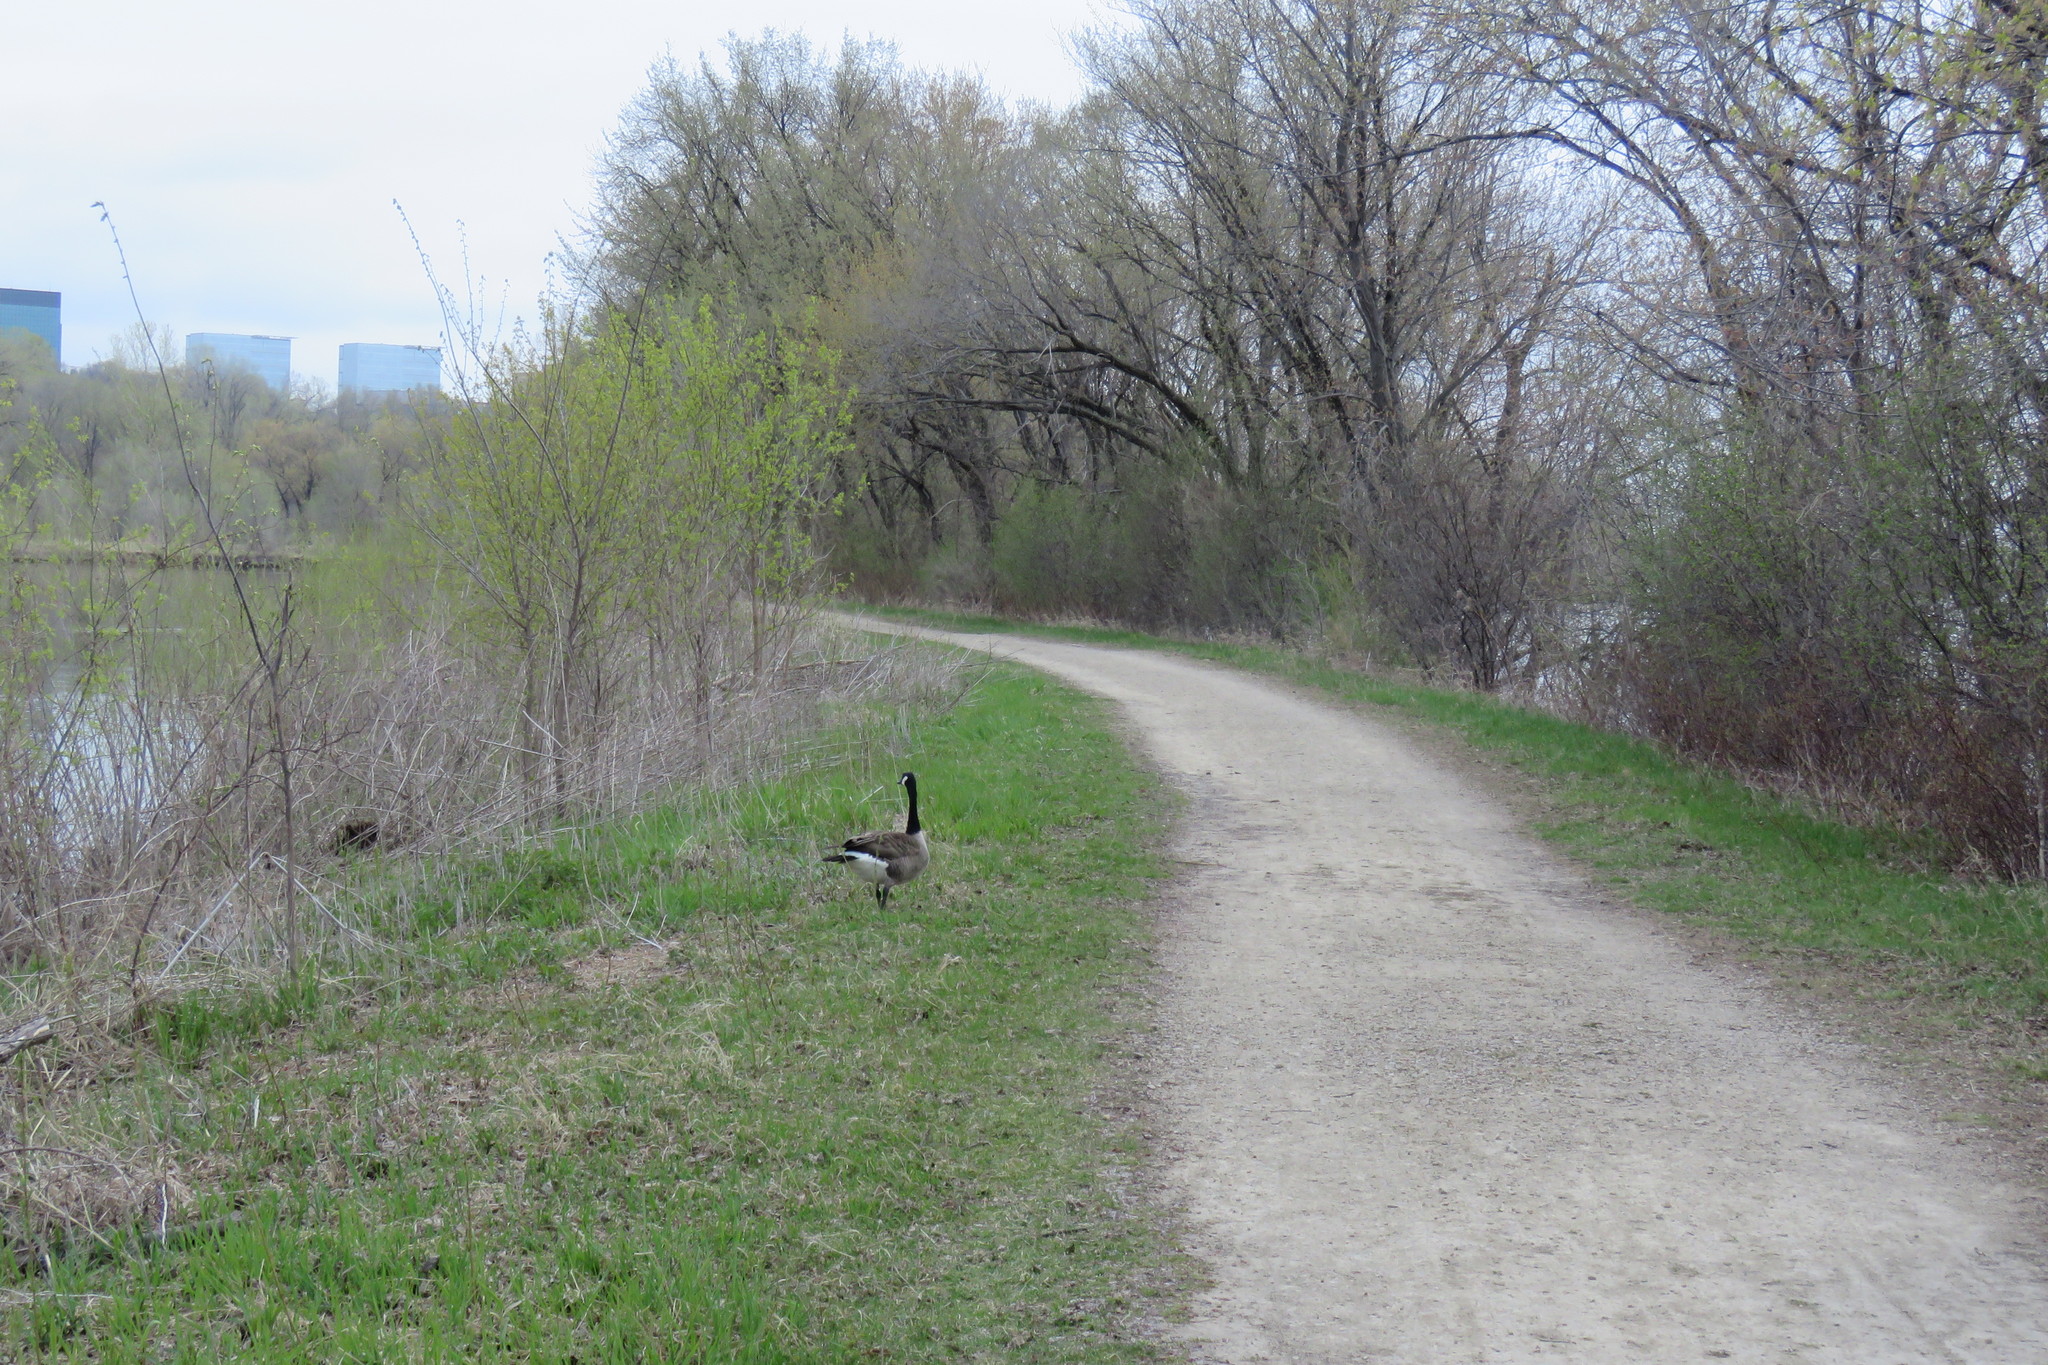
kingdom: Animalia
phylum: Chordata
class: Aves
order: Anseriformes
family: Anatidae
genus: Branta
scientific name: Branta canadensis
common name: Canada goose
